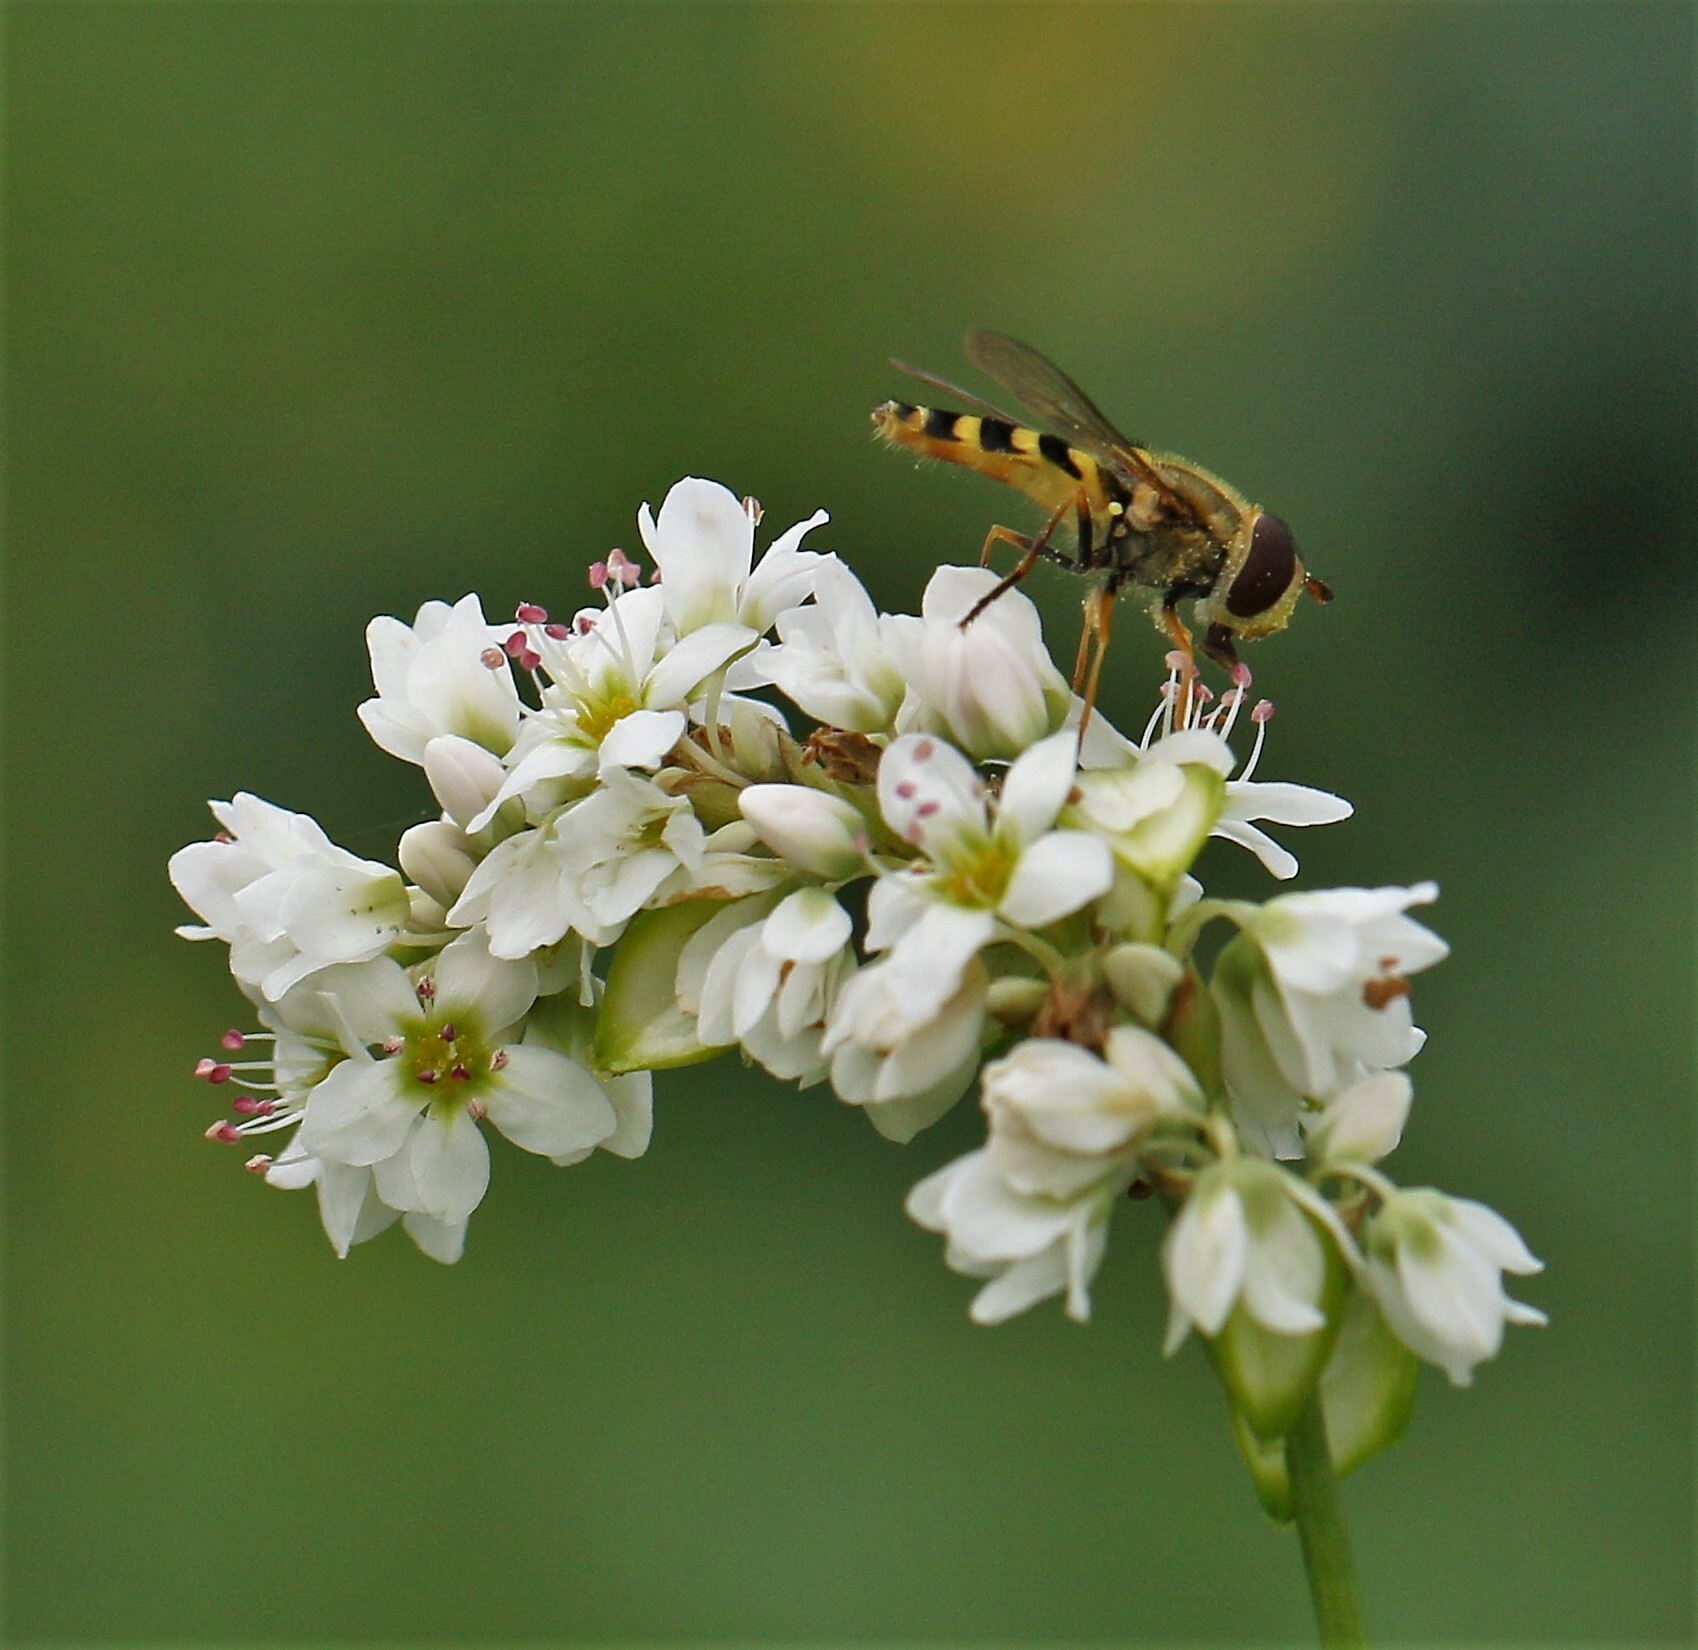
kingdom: Animalia
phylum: Arthropoda
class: Insecta
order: Diptera
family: Syrphidae
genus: Syrphus
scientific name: Syrphus
